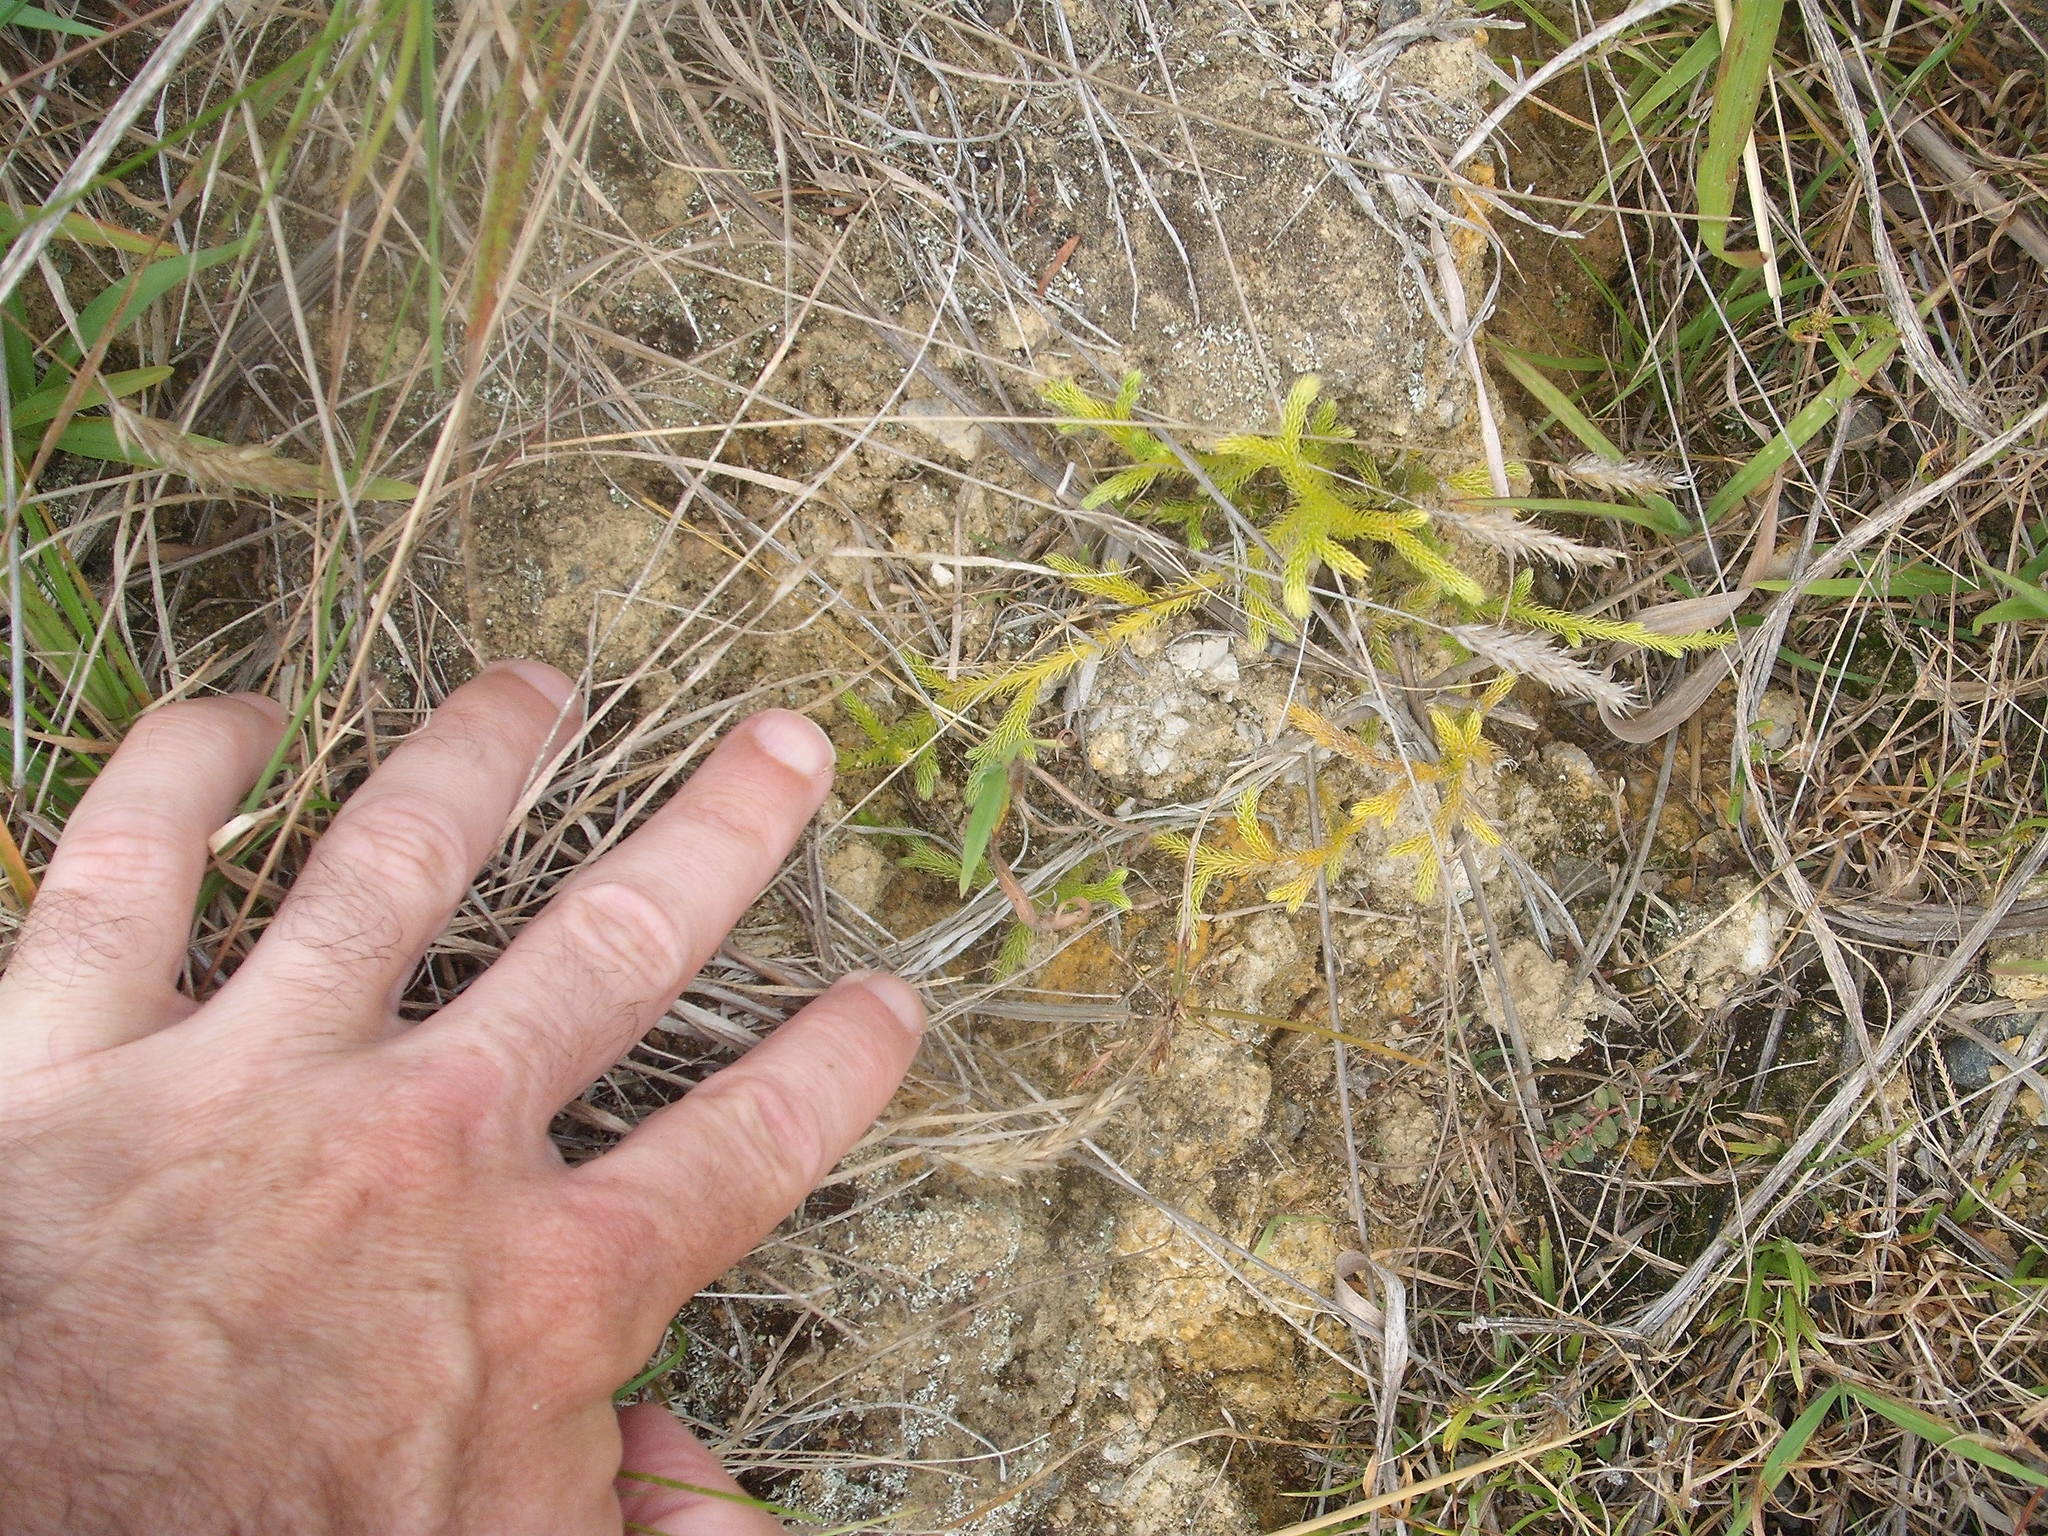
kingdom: Plantae
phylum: Tracheophyta
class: Lycopodiopsida
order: Lycopodiales
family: Lycopodiaceae
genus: Palhinhaea
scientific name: Palhinhaea cernua
